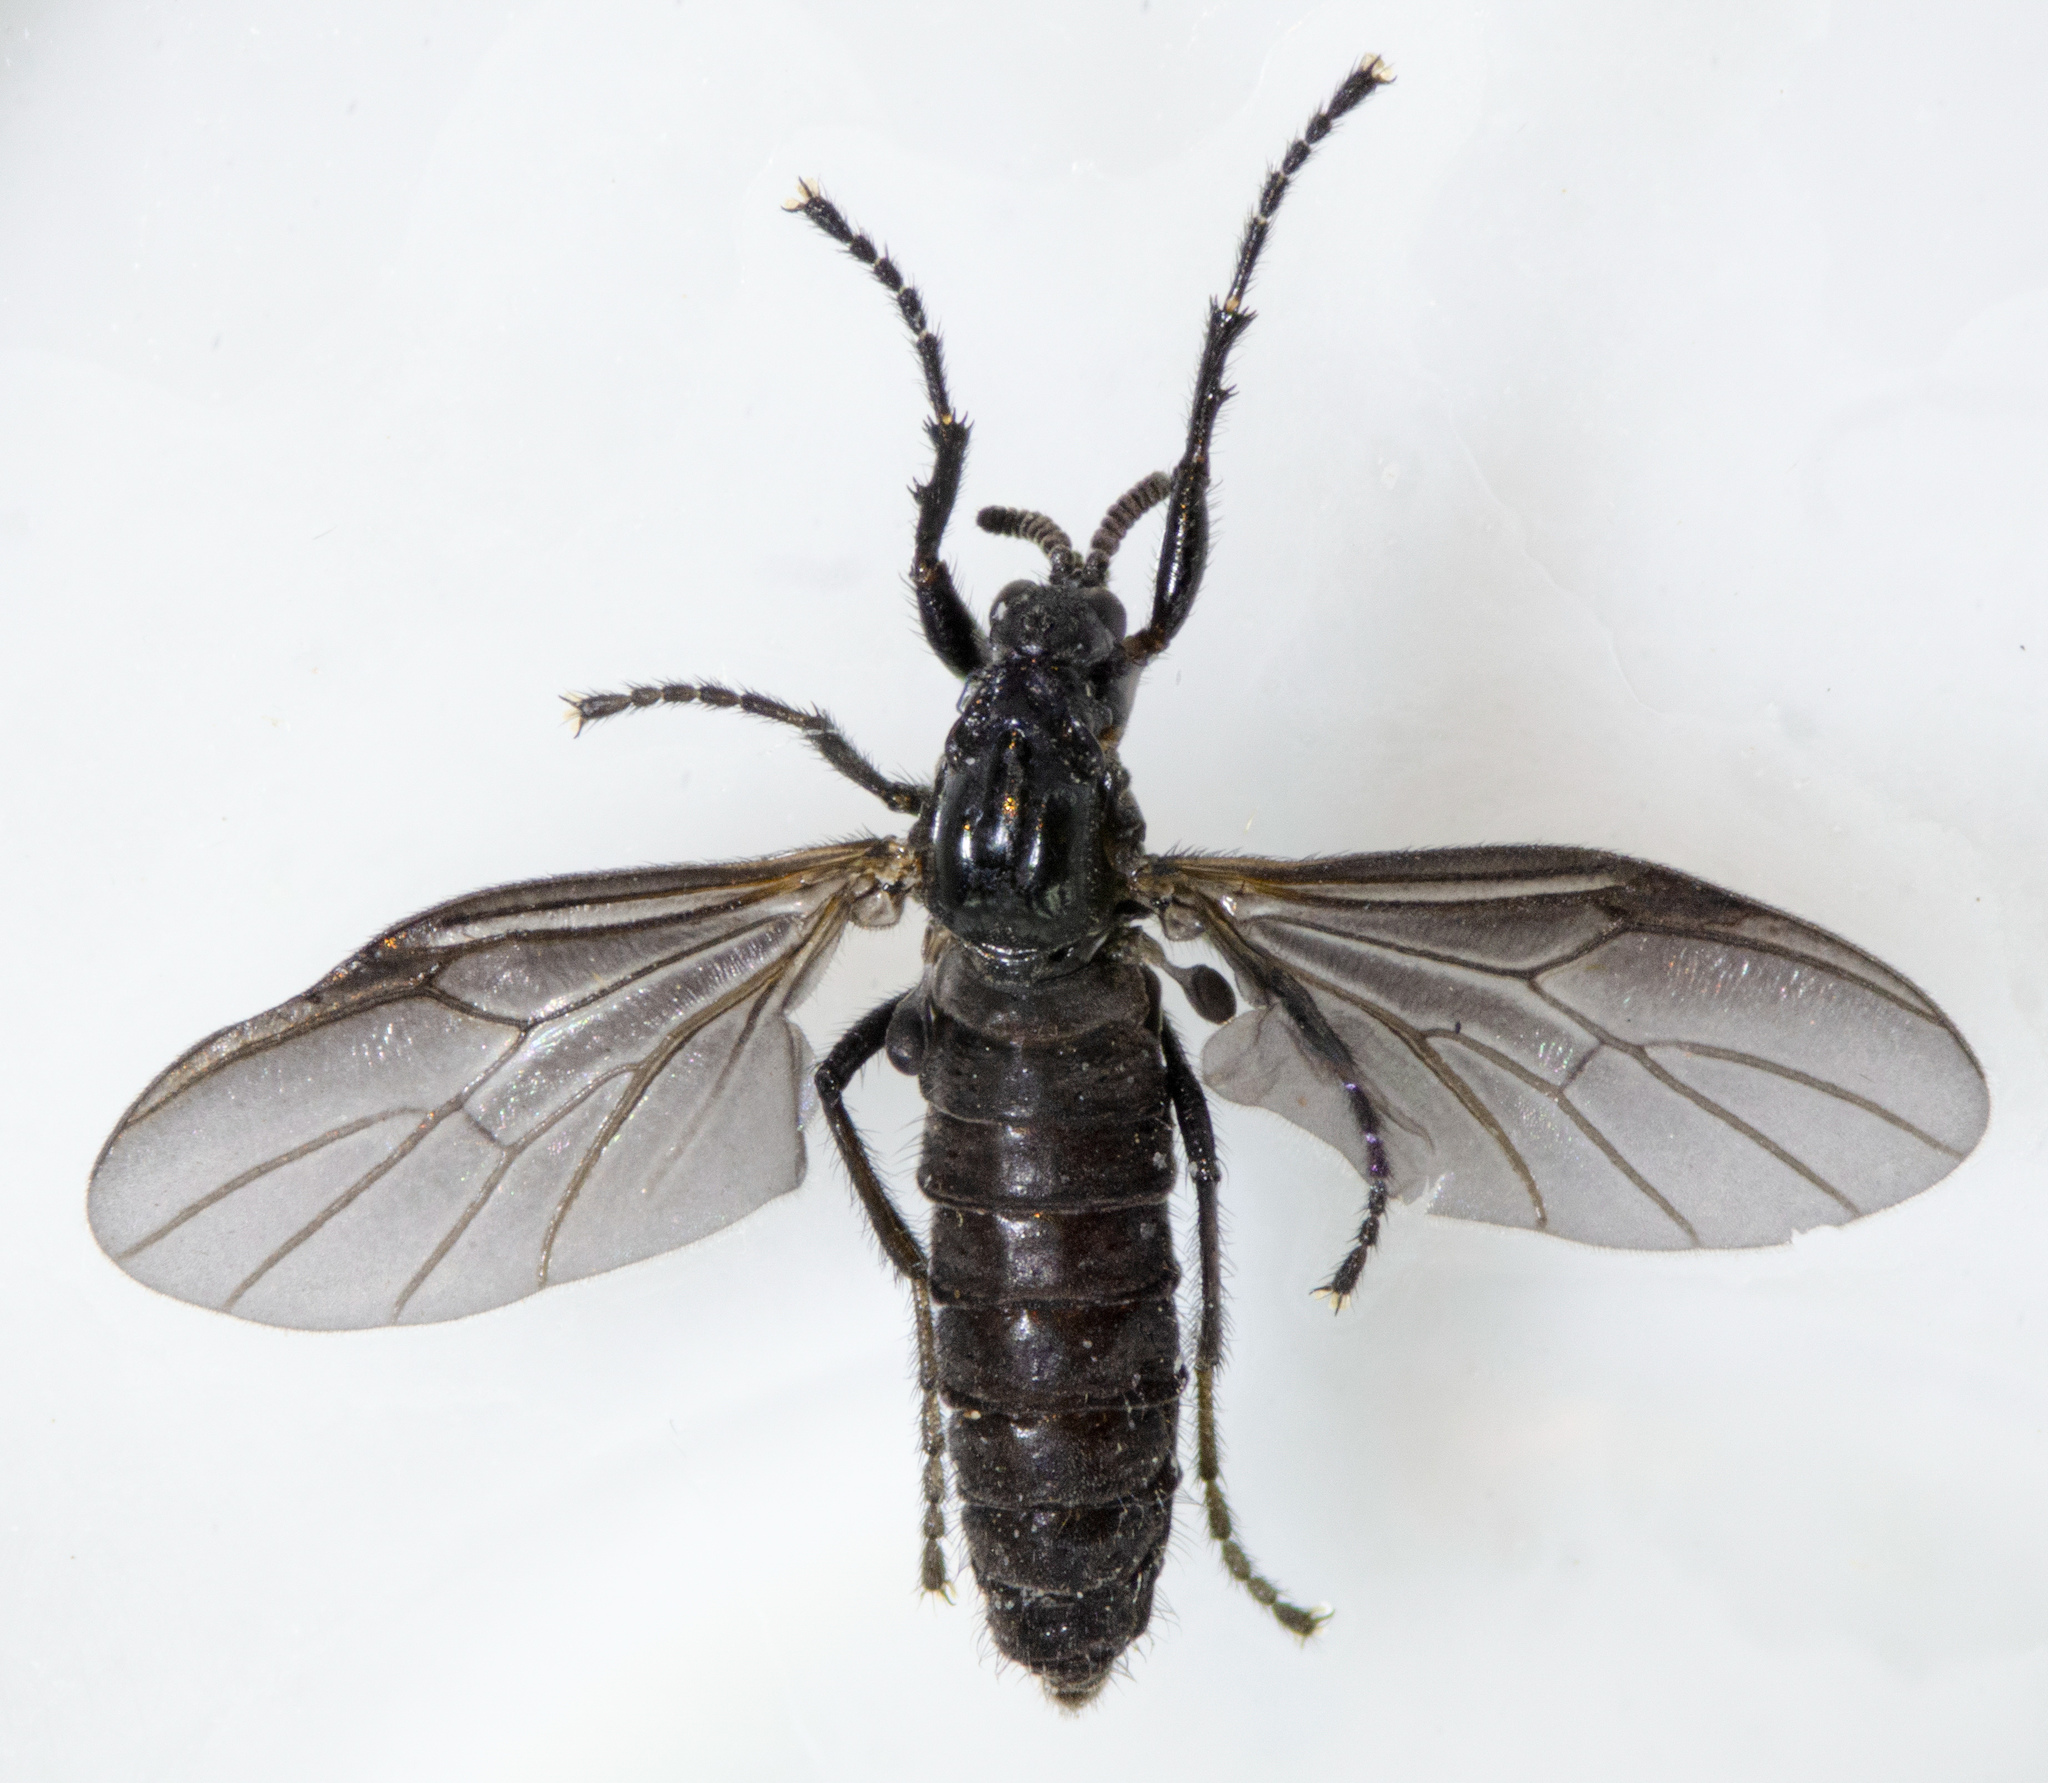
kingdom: Animalia
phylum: Arthropoda
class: Insecta
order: Diptera
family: Bibionidae
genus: Dilophus
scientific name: Dilophus orbatus
